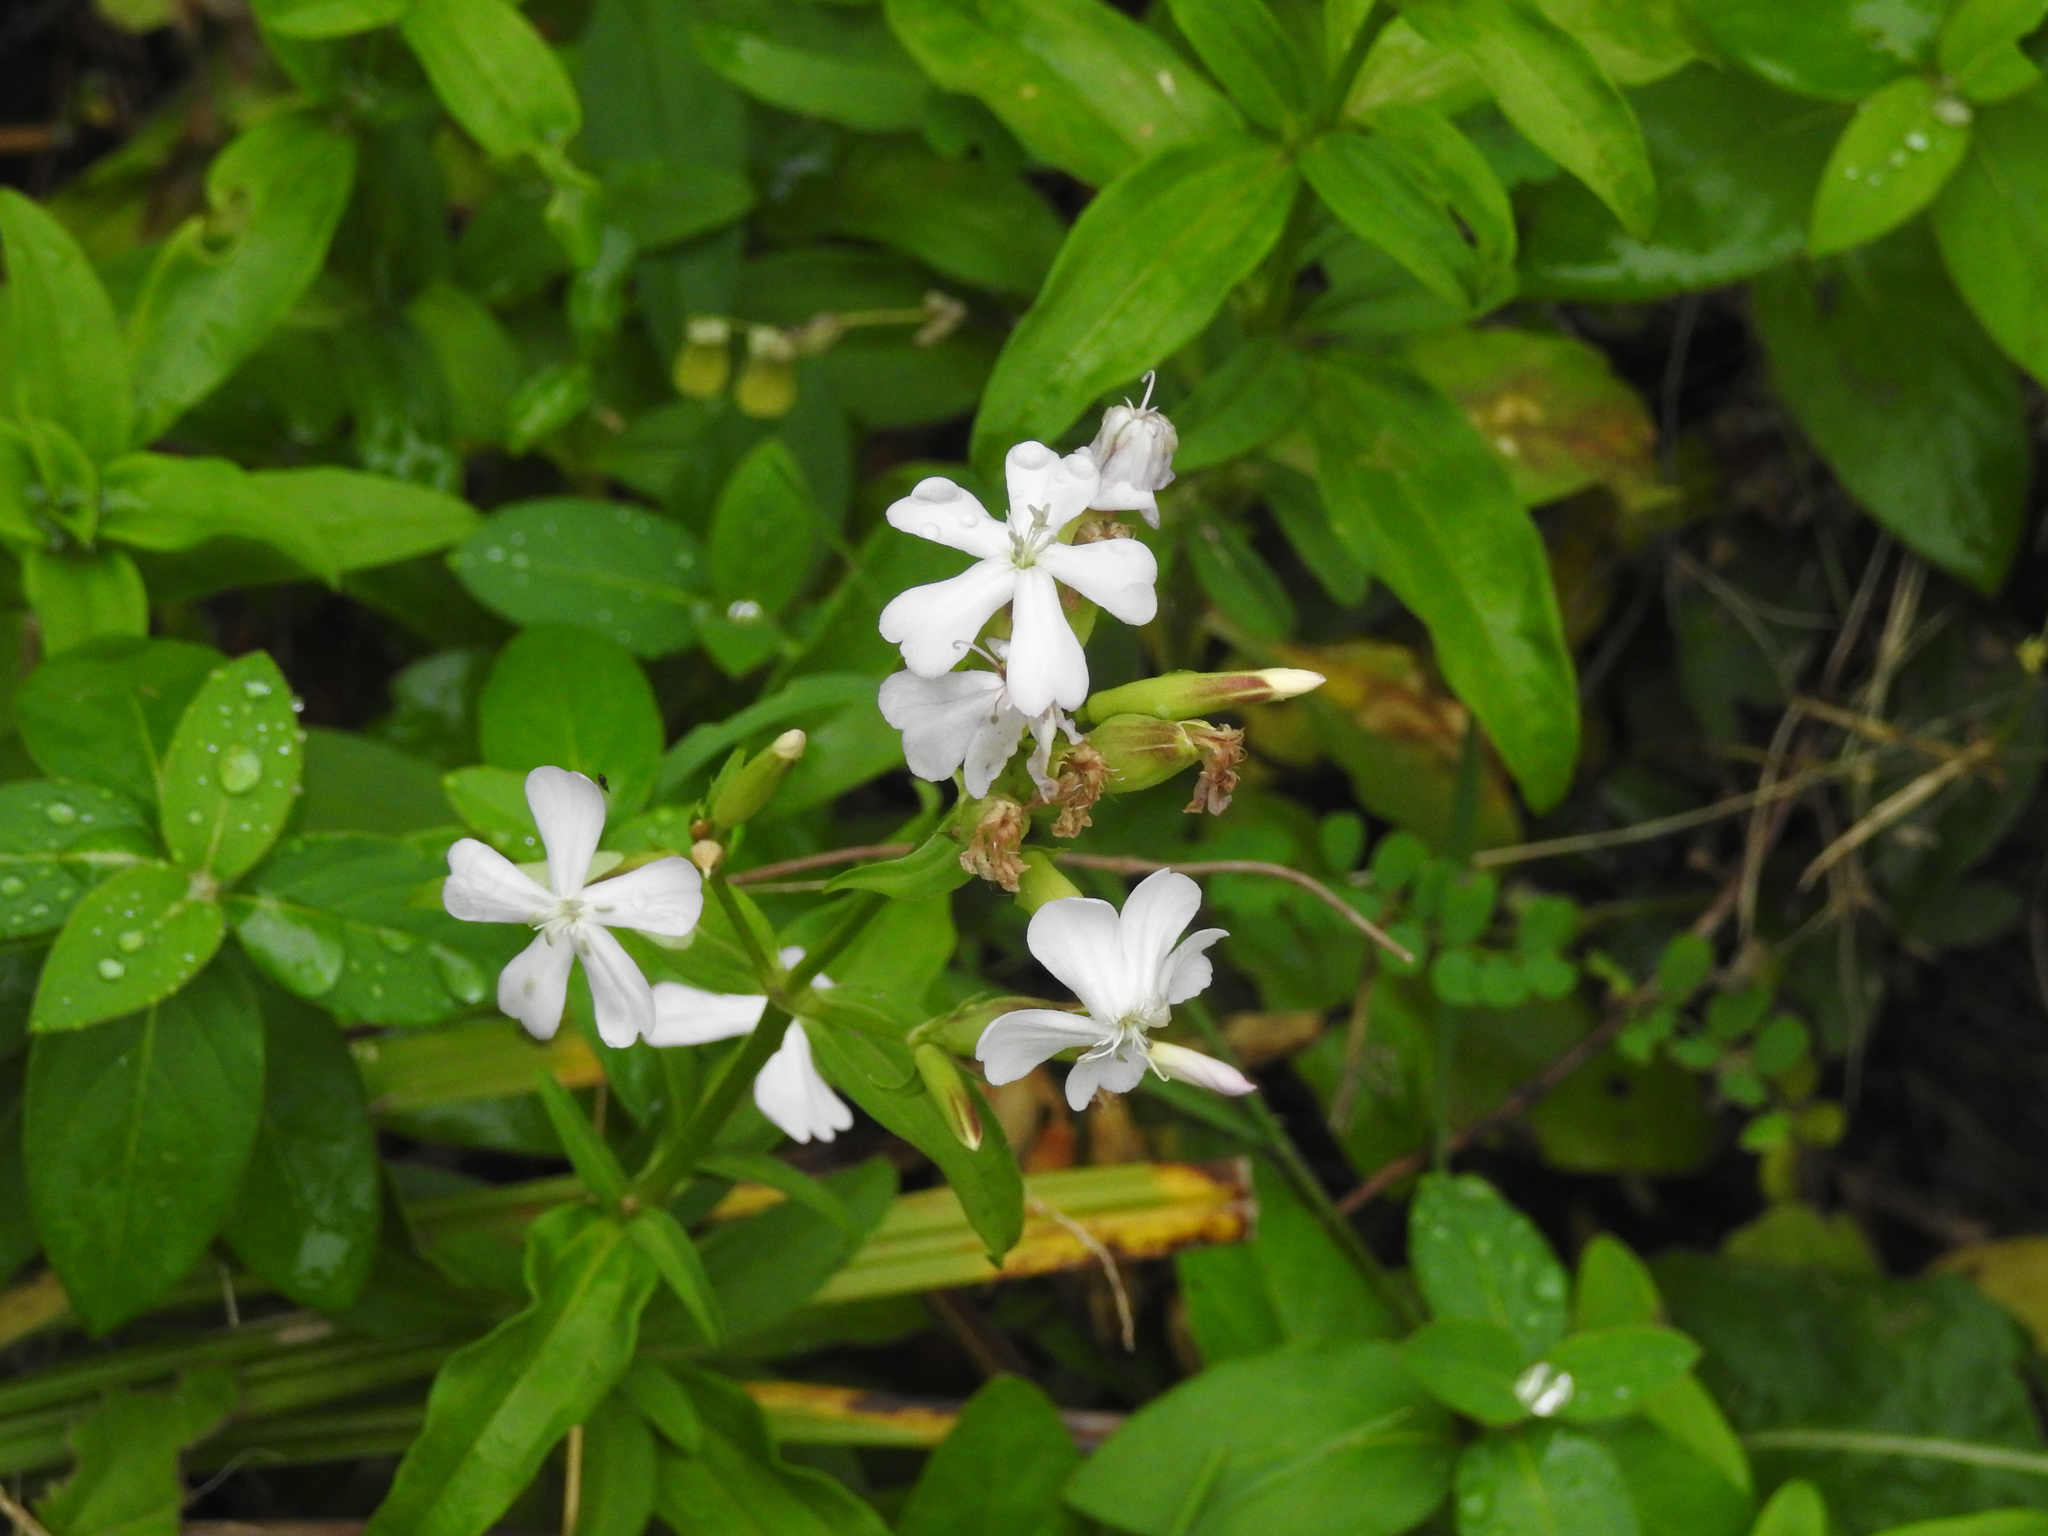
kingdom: Plantae
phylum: Tracheophyta
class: Magnoliopsida
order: Caryophyllales
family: Caryophyllaceae
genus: Saponaria
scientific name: Saponaria officinalis
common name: Soapwort
